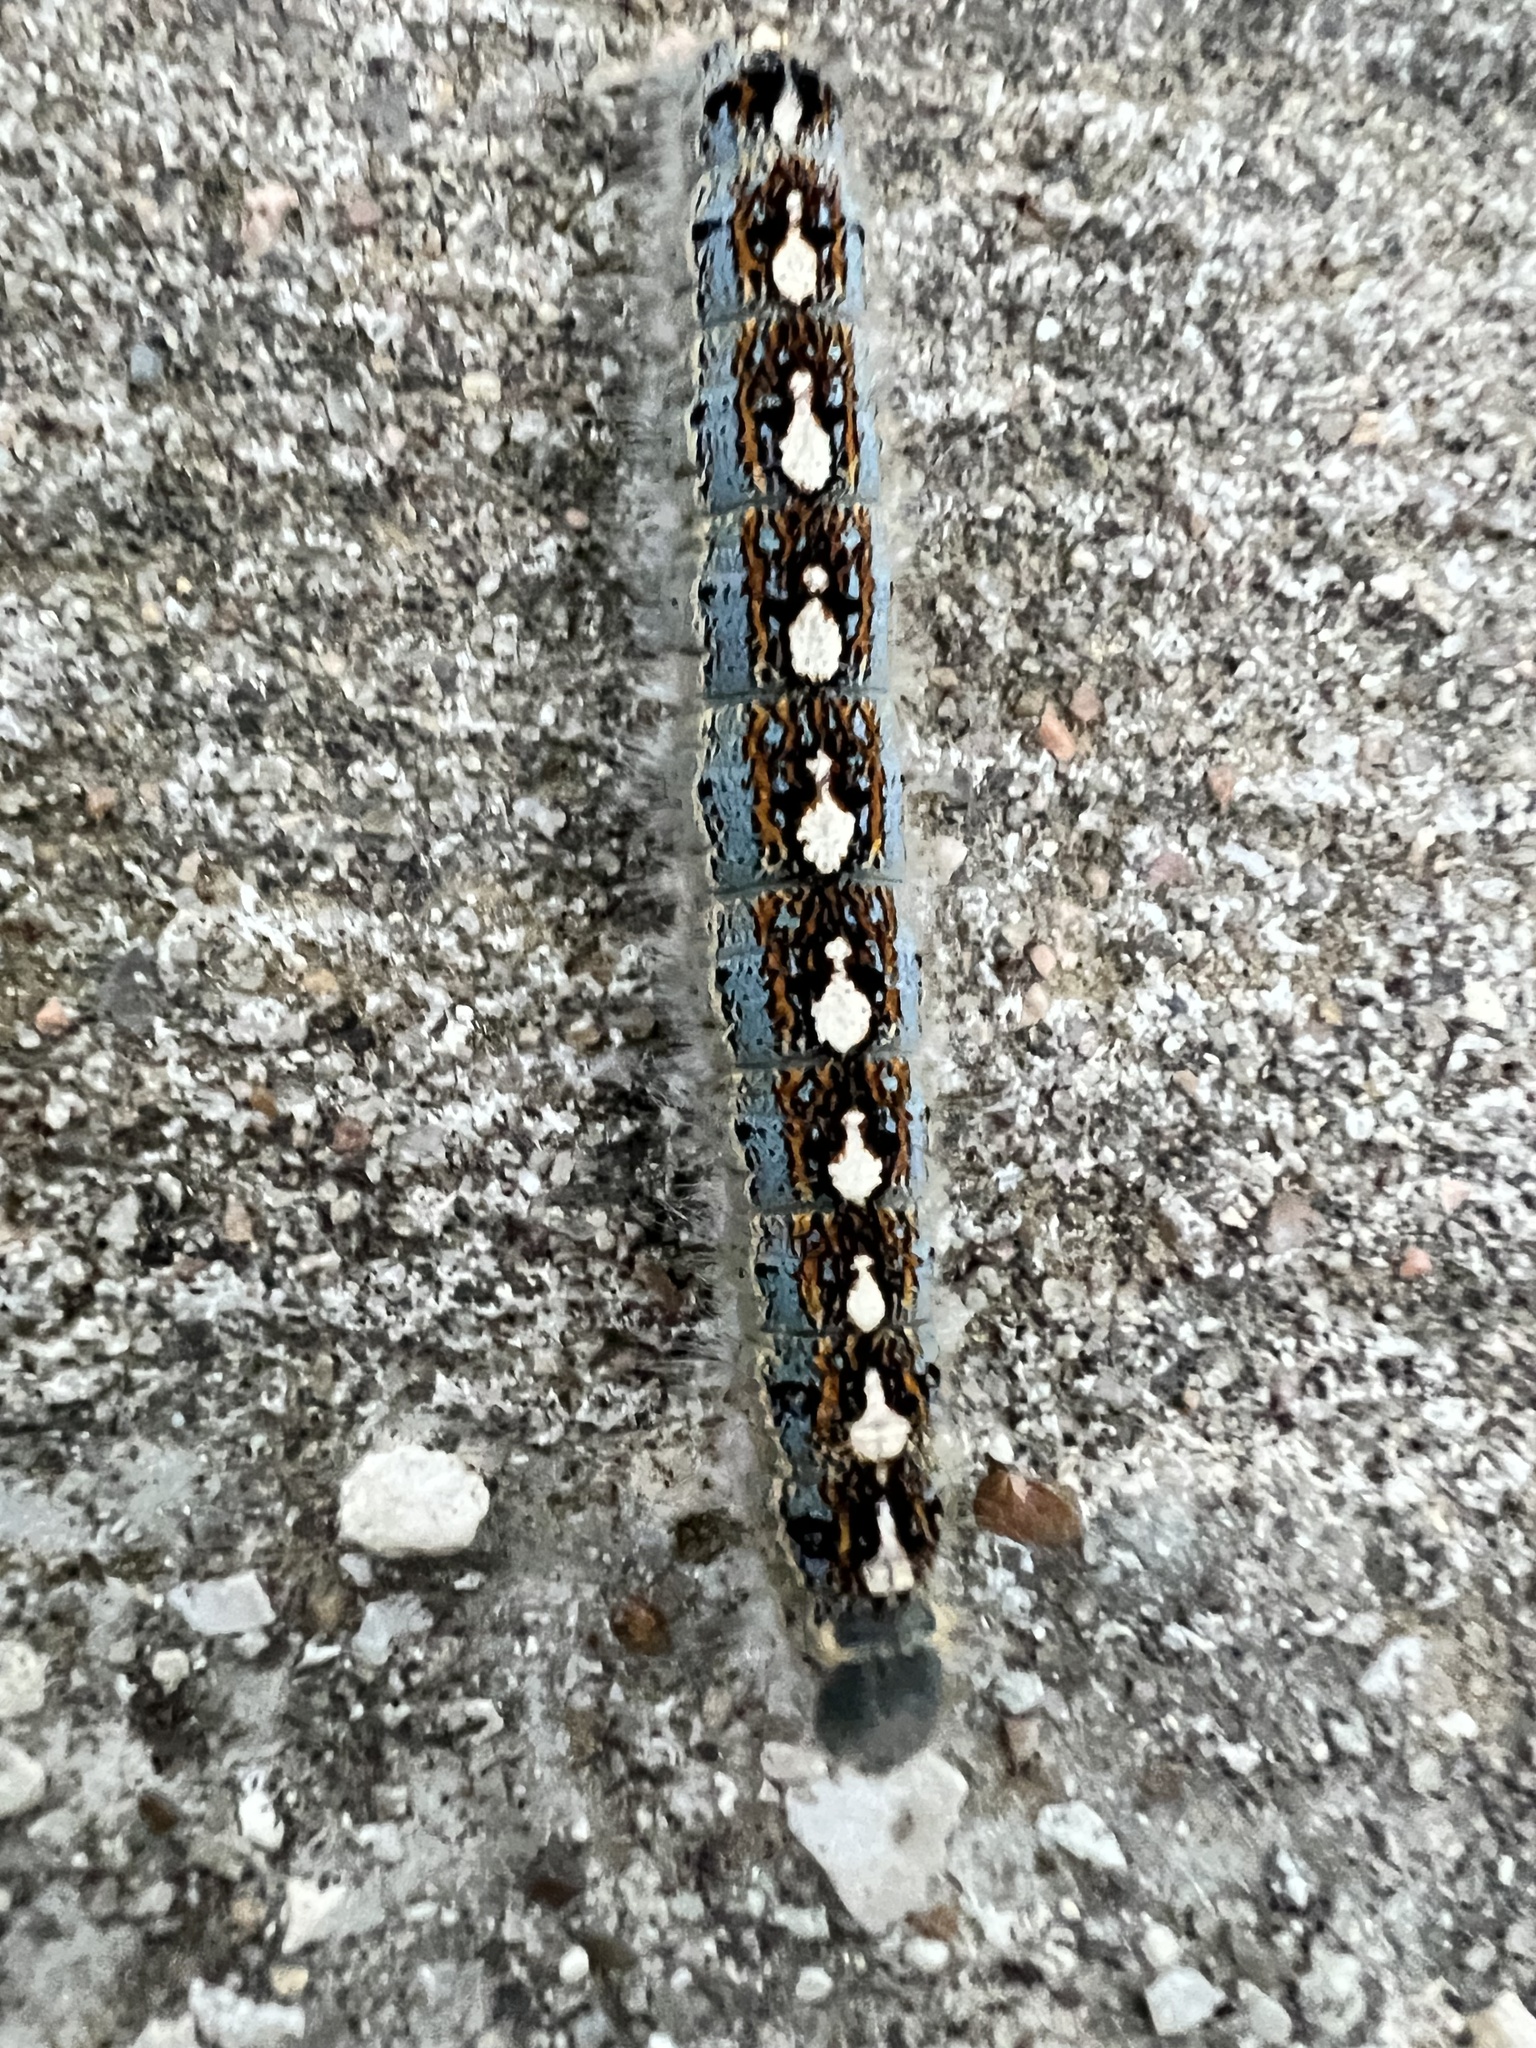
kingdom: Animalia
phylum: Arthropoda
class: Insecta
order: Lepidoptera
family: Lasiocampidae
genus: Malacosoma
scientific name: Malacosoma disstria
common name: Forest tent caterpillar
